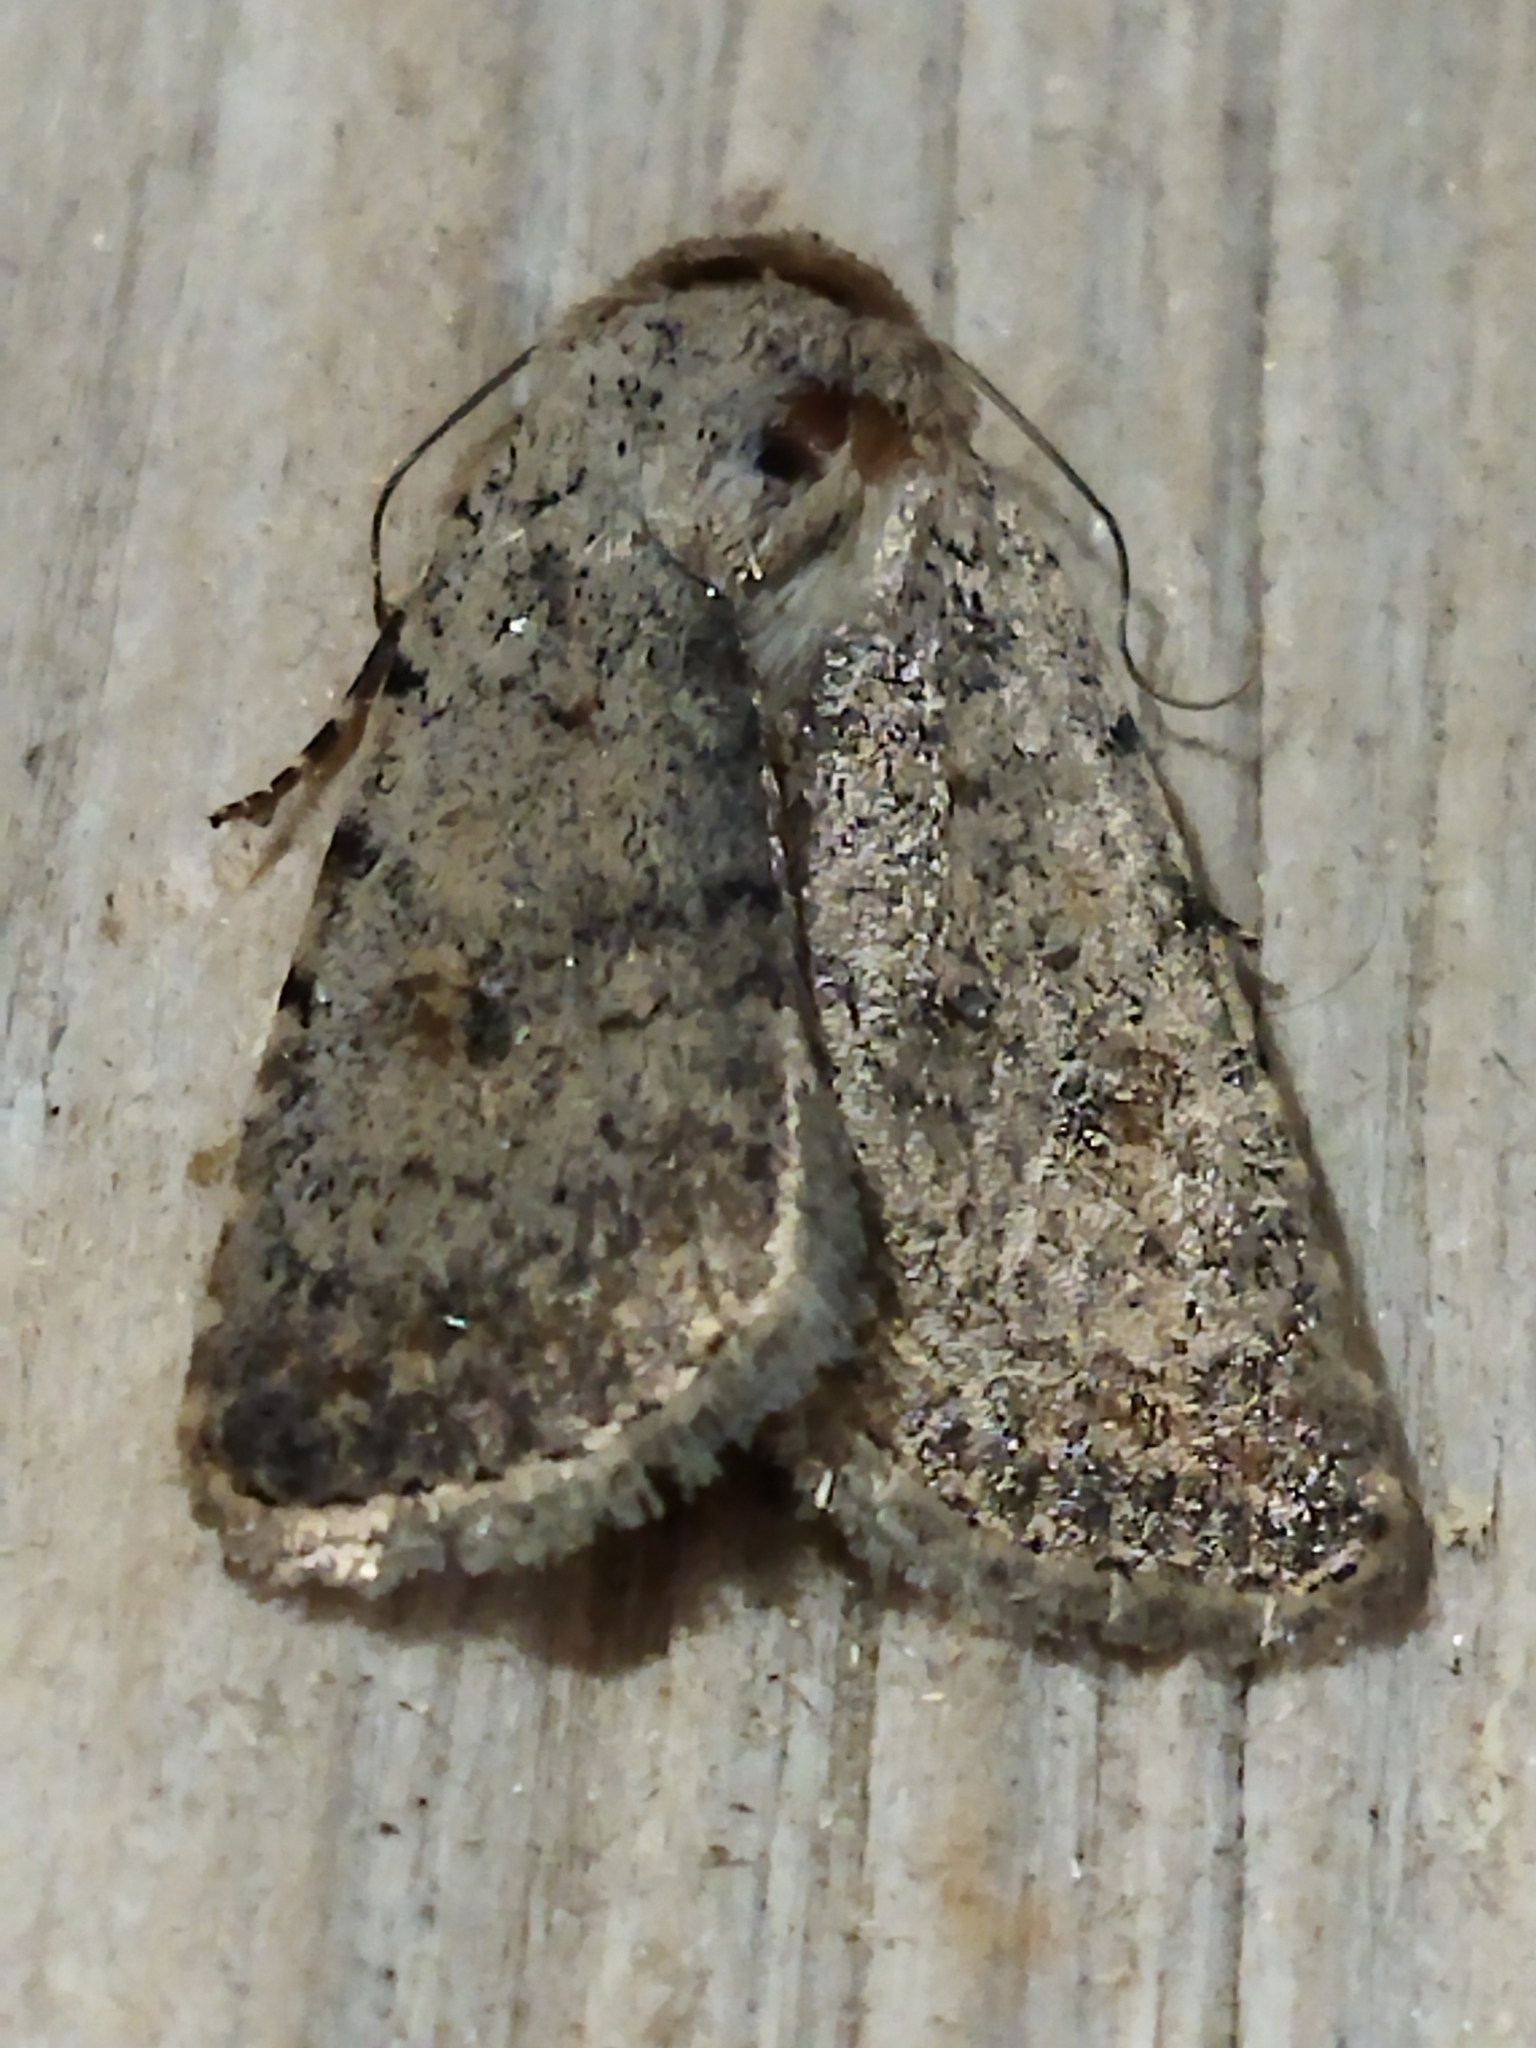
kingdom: Animalia
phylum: Arthropoda
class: Insecta
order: Lepidoptera
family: Noctuidae
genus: Caradrina
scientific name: Caradrina clavipalpis
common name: Pale mottled willow
